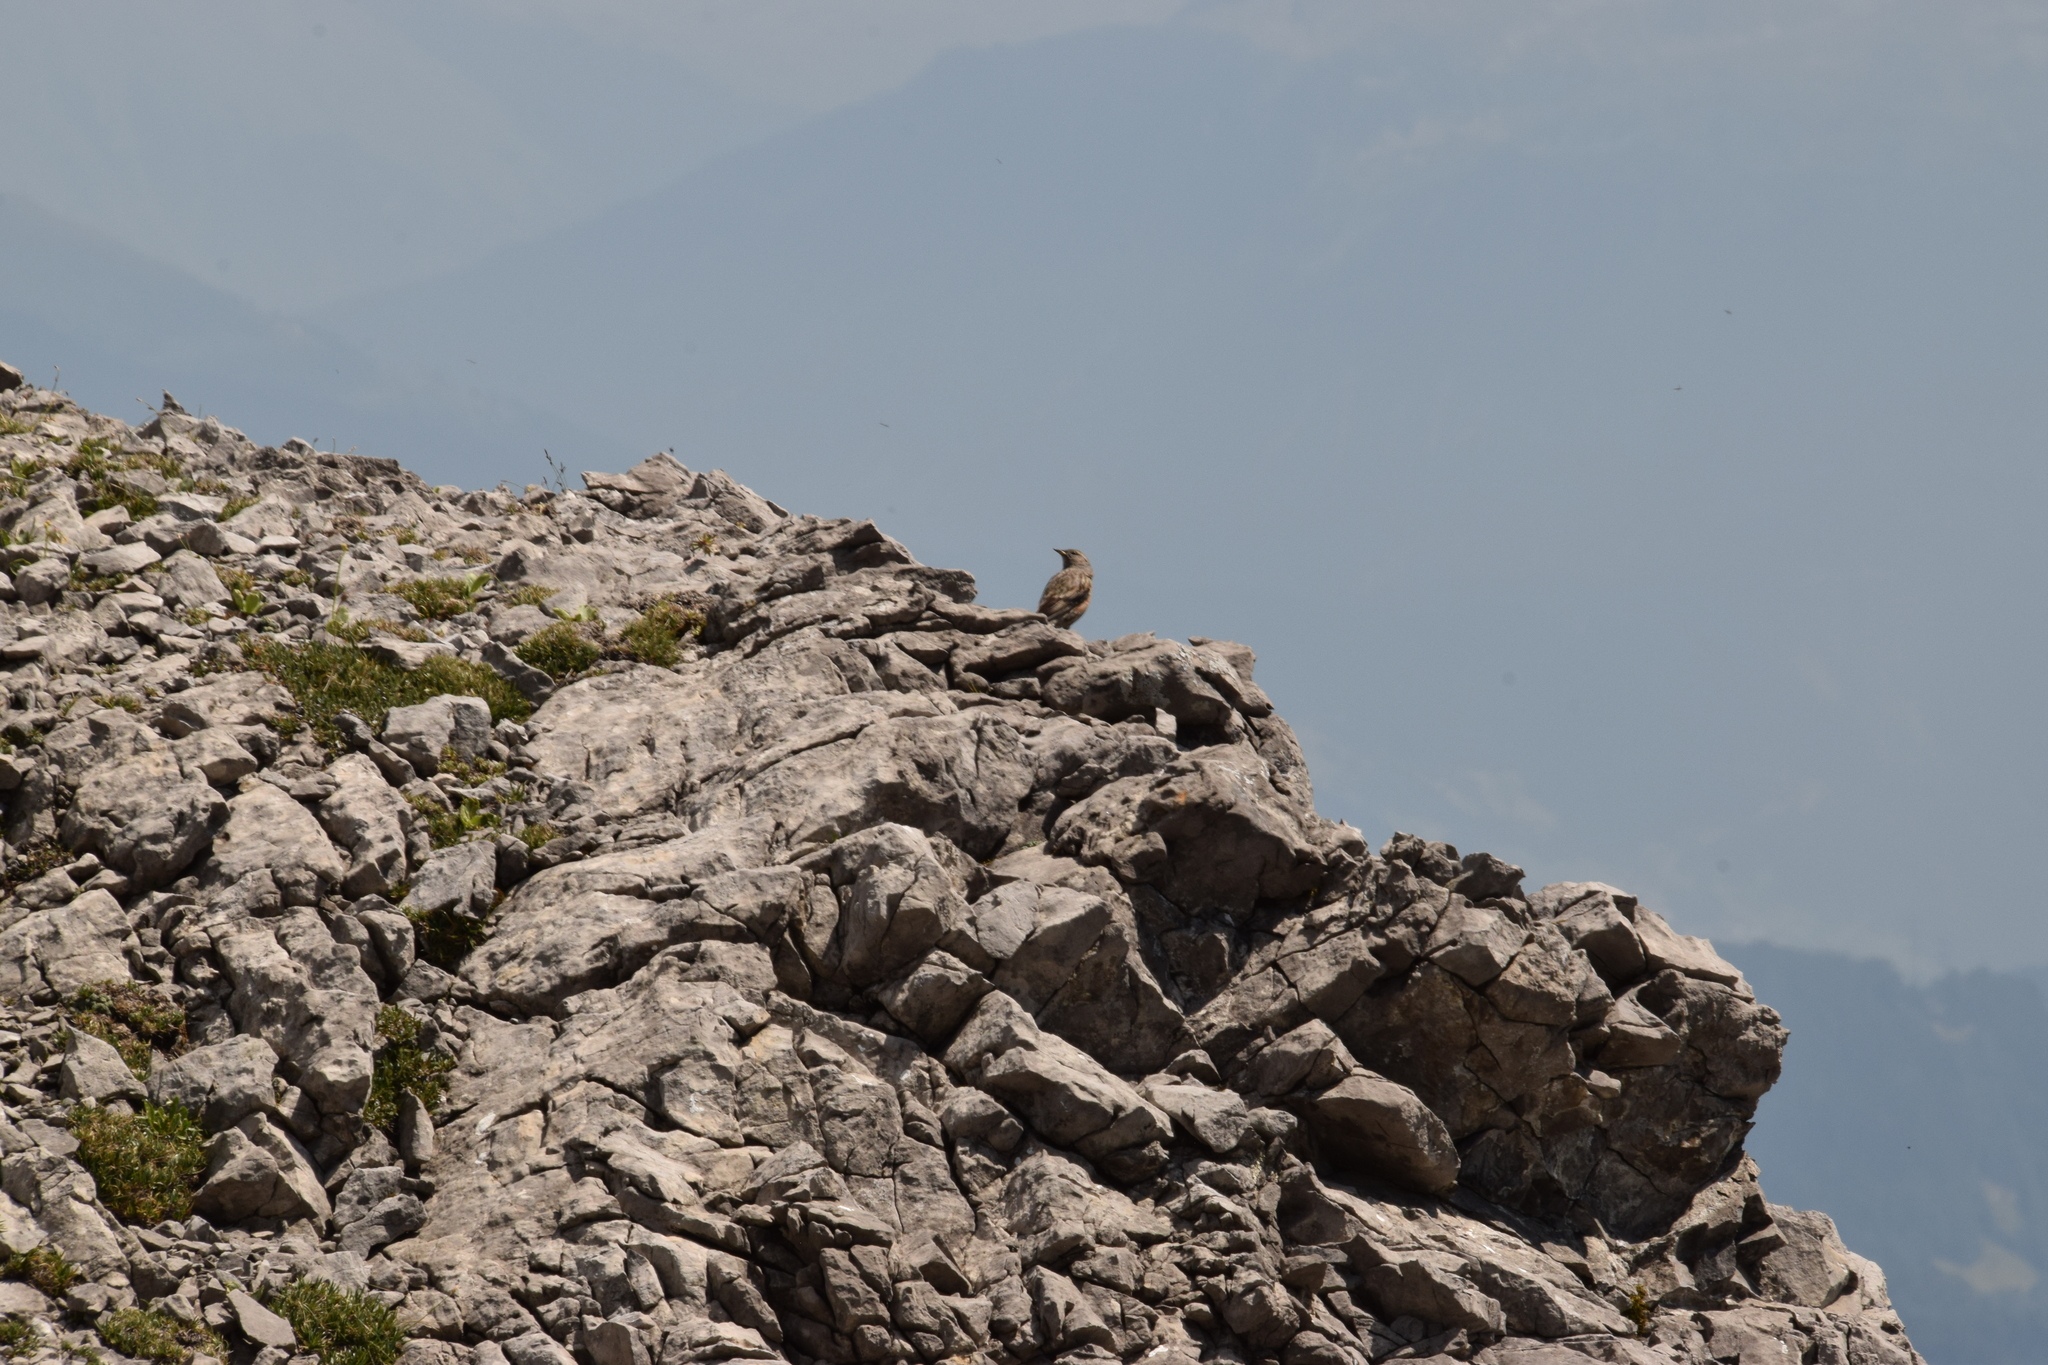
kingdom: Animalia
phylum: Chordata
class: Aves
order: Passeriformes
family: Prunellidae
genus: Prunella
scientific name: Prunella collaris
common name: Alpine accentor
